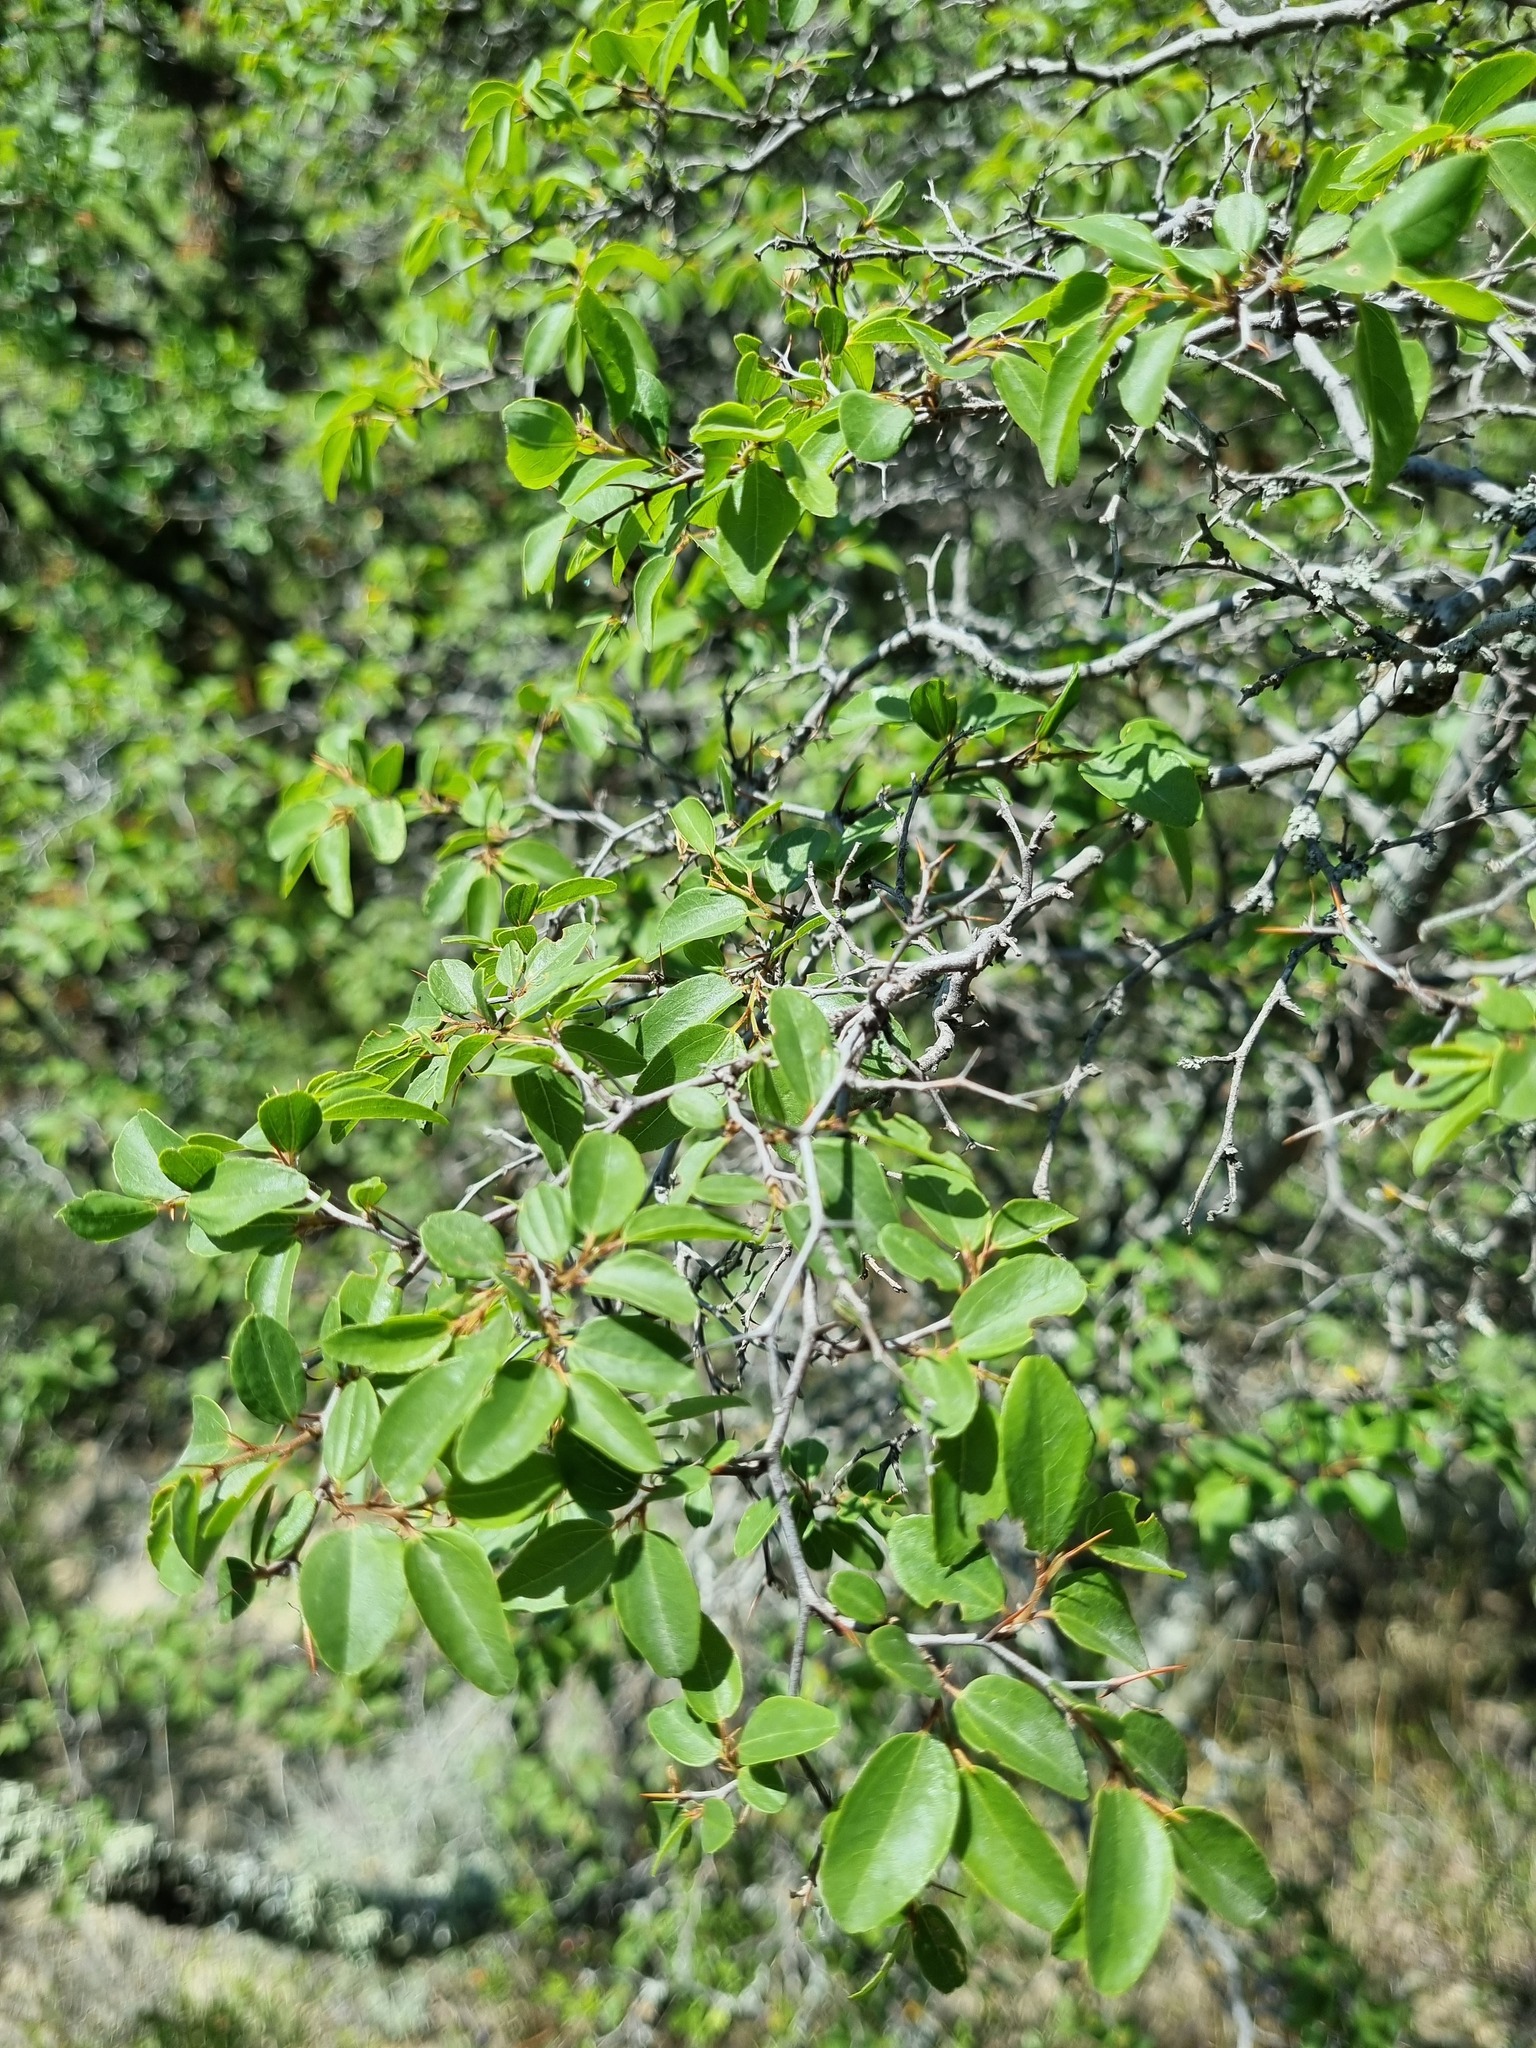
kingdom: Plantae
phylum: Tracheophyta
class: Magnoliopsida
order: Rosales
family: Rhamnaceae
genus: Paliurus
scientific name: Paliurus spina-christi
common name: Jeruselem thorn
